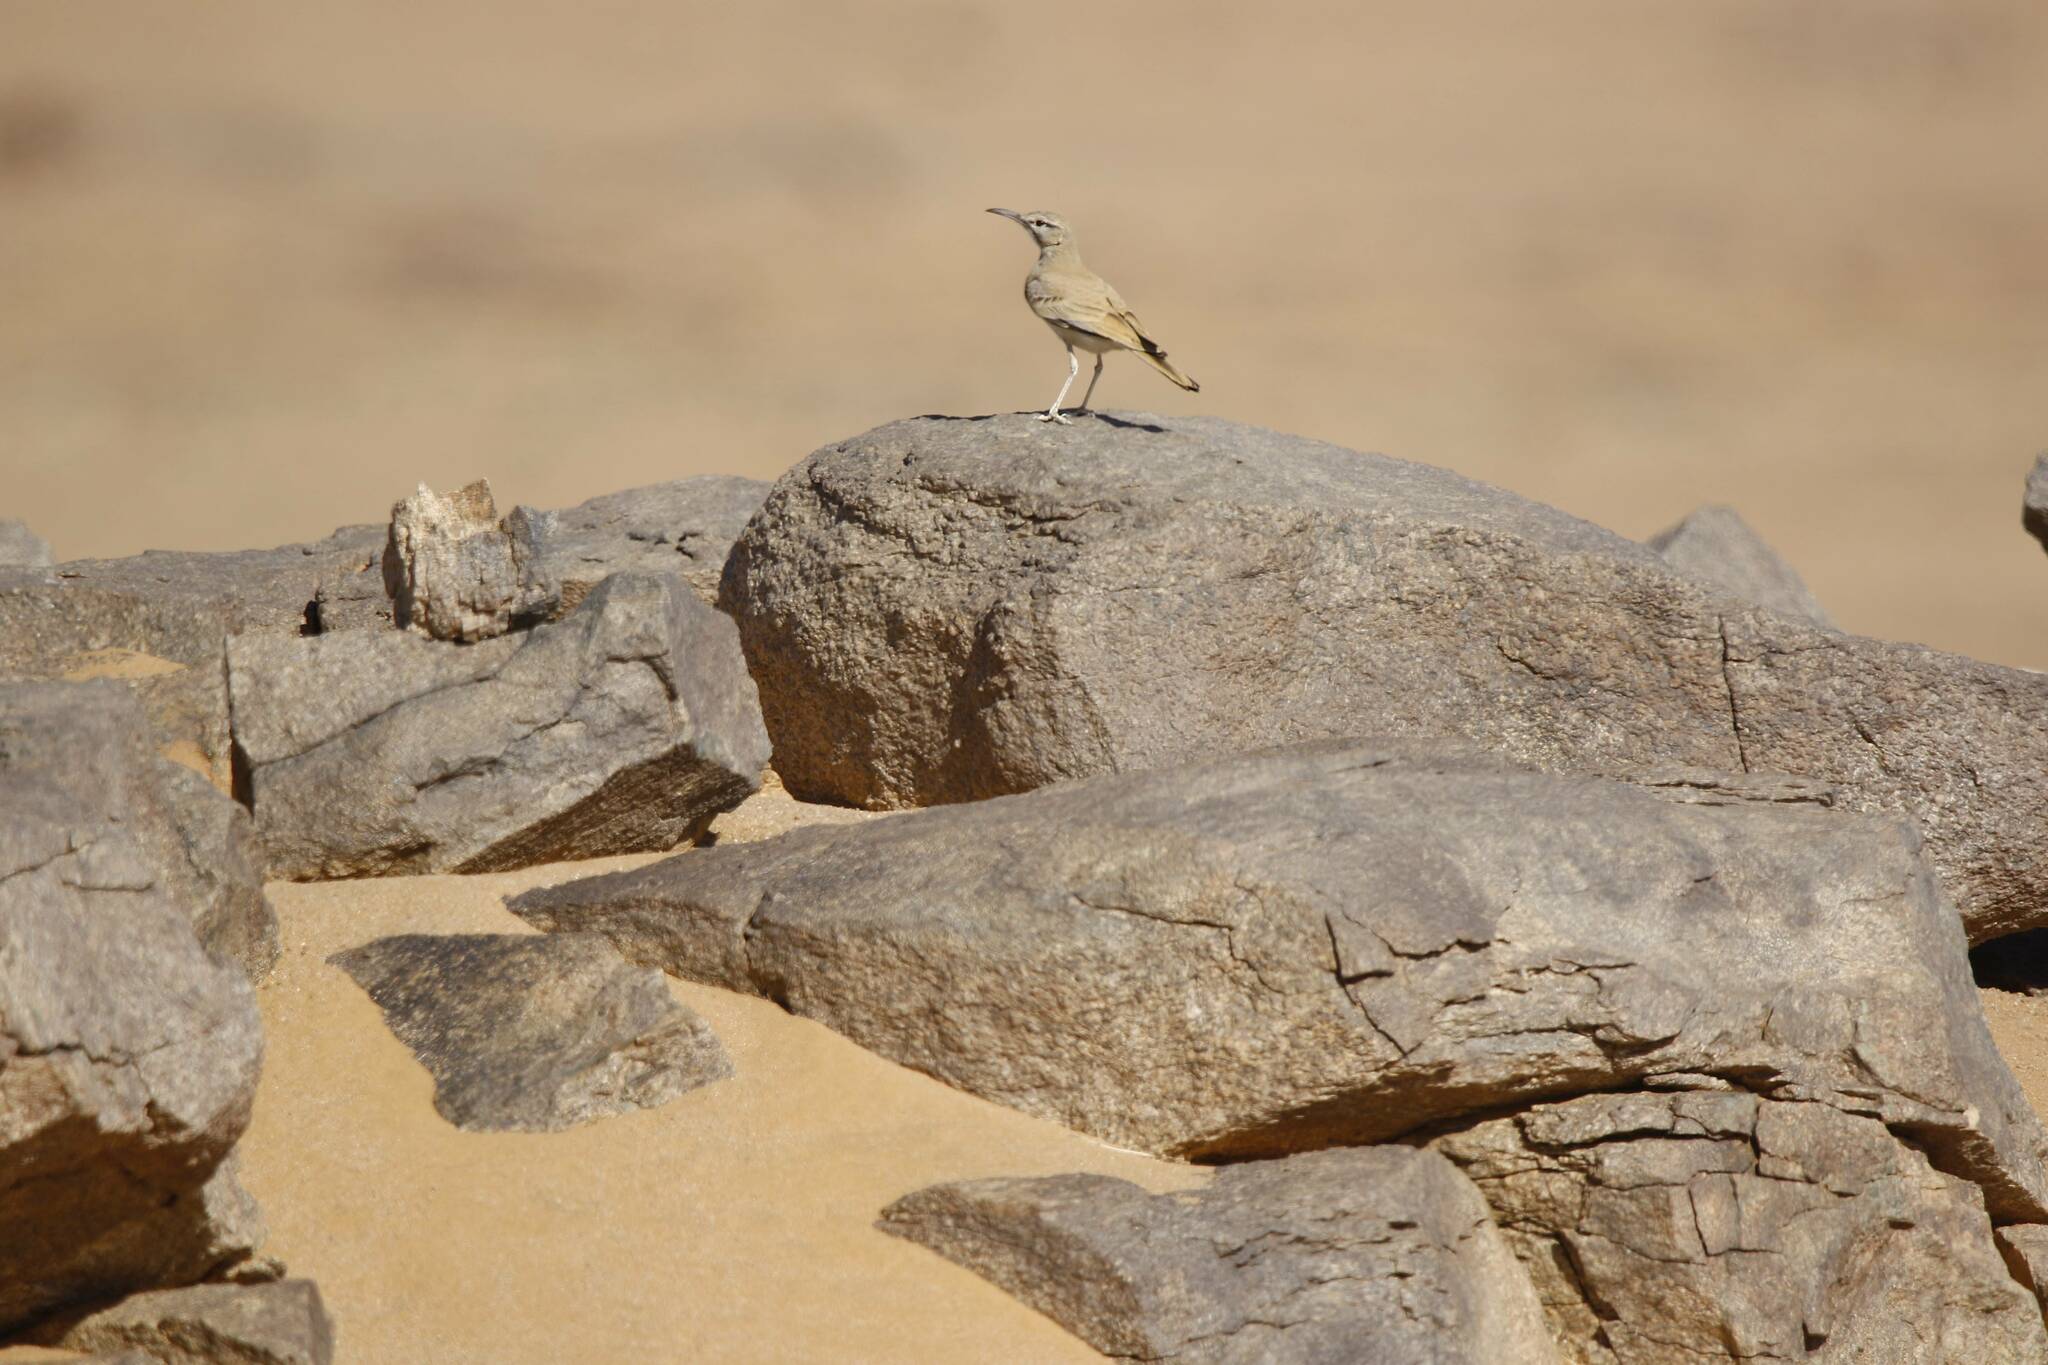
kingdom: Animalia
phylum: Chordata
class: Aves
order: Passeriformes
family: Alaudidae
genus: Alaemon
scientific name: Alaemon alaudipes
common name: Greater hoopoe-lark
